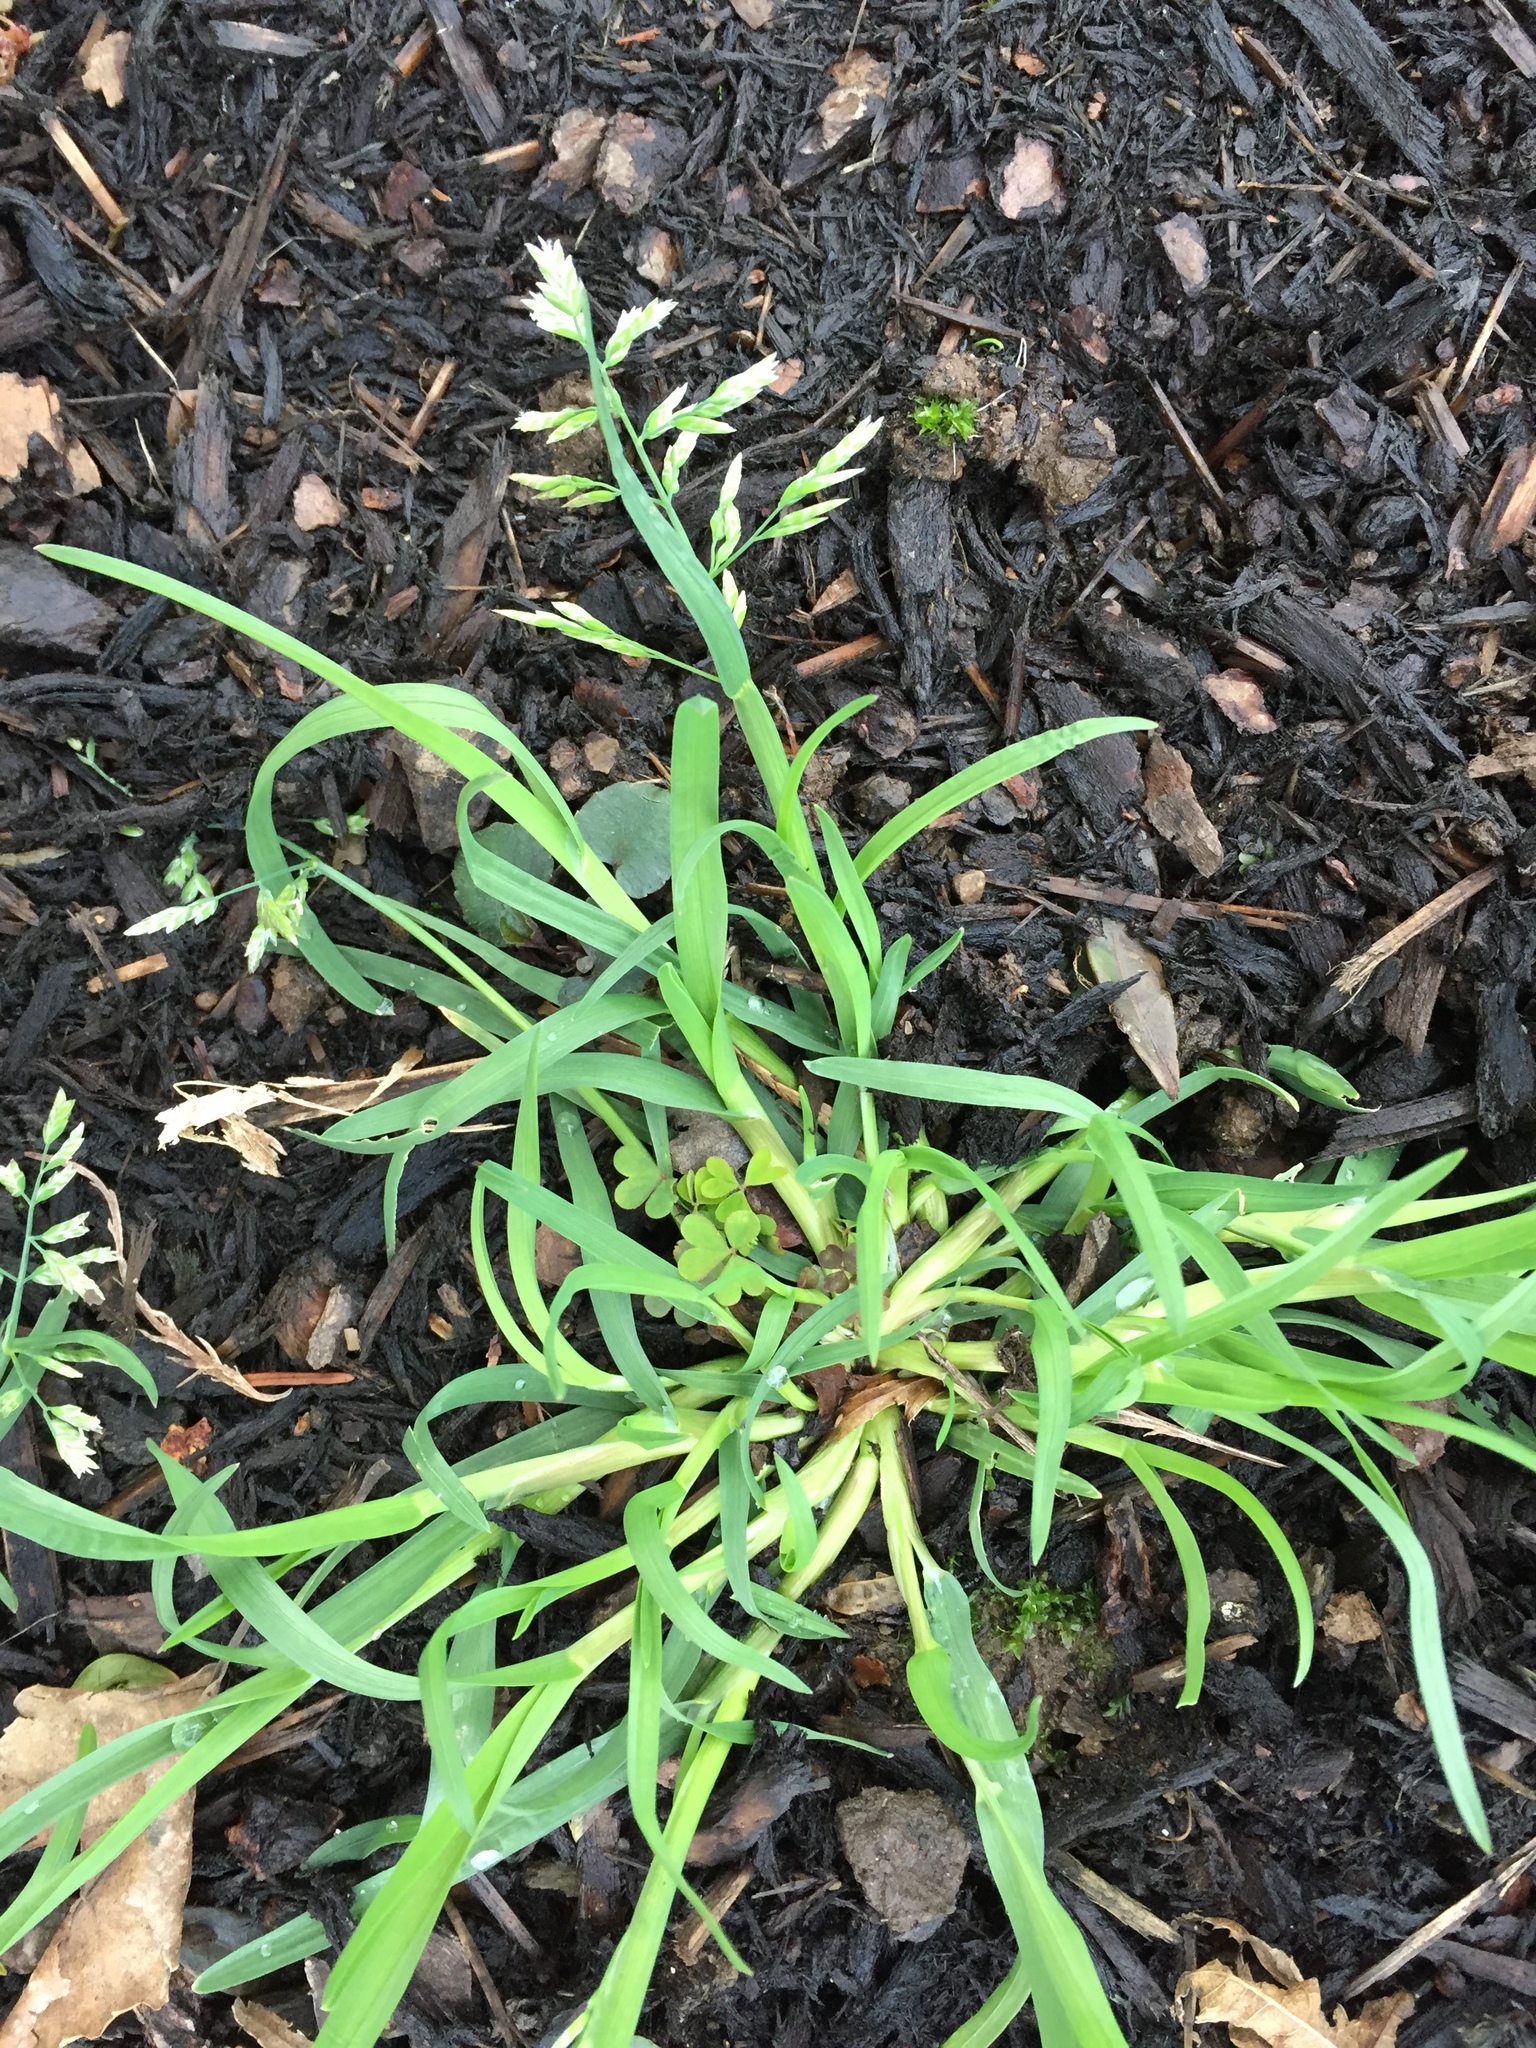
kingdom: Plantae
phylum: Tracheophyta
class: Liliopsida
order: Poales
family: Poaceae
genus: Poa
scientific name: Poa annua
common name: Annual bluegrass
